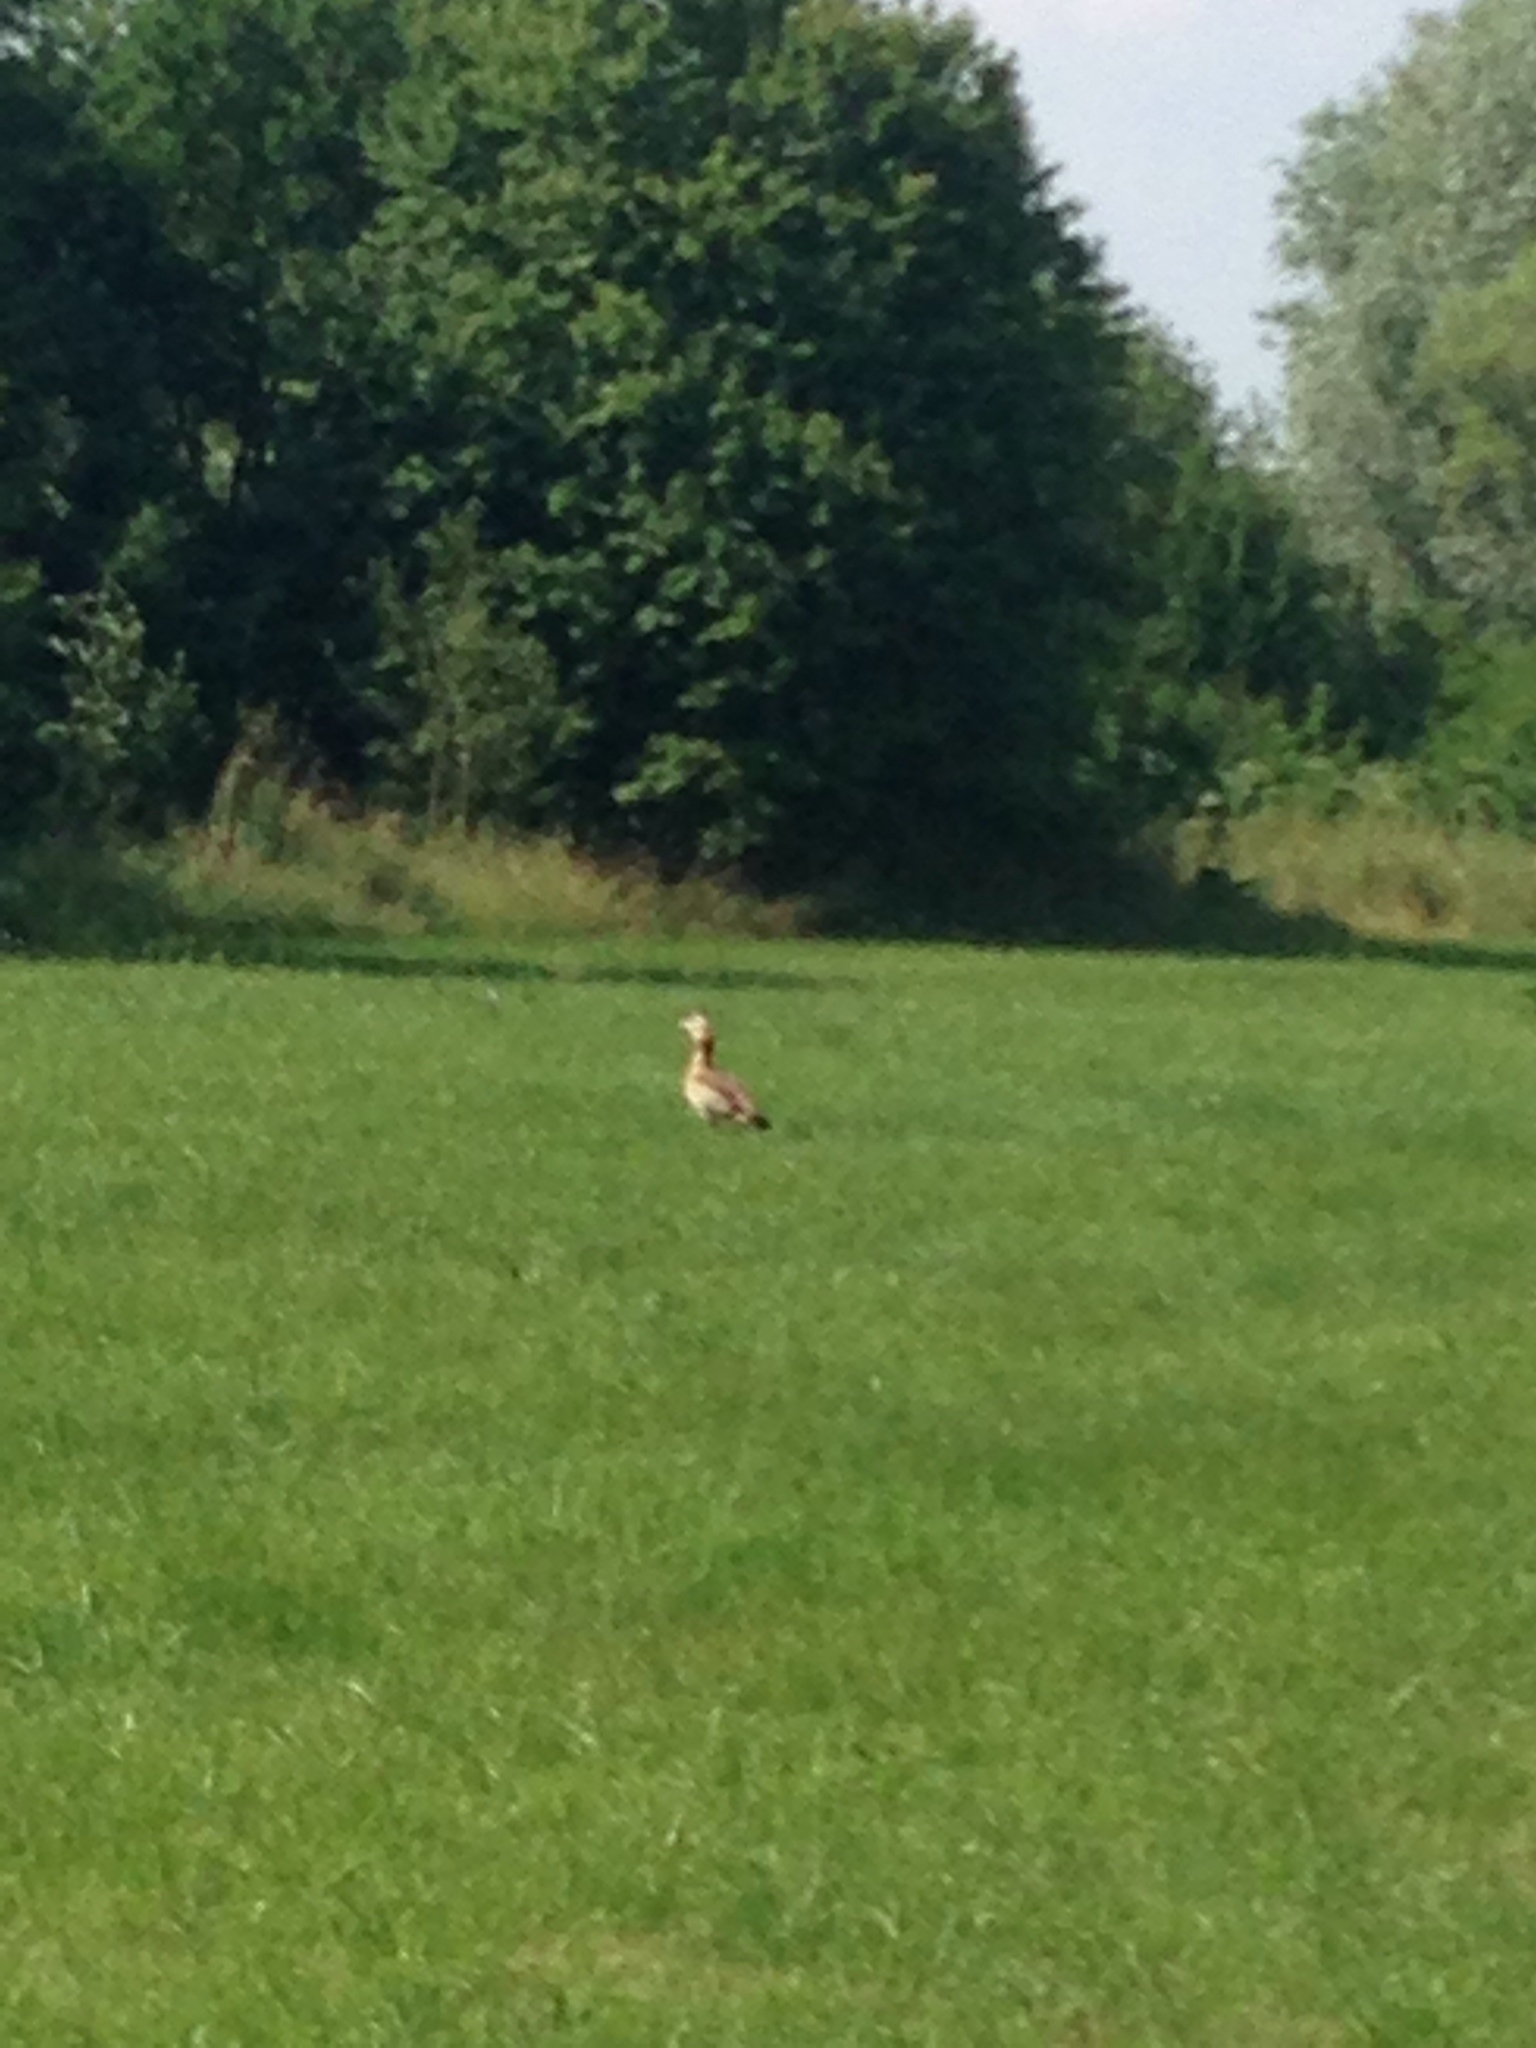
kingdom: Animalia
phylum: Chordata
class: Aves
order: Anseriformes
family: Anatidae
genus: Alopochen
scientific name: Alopochen aegyptiaca
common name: Egyptian goose
